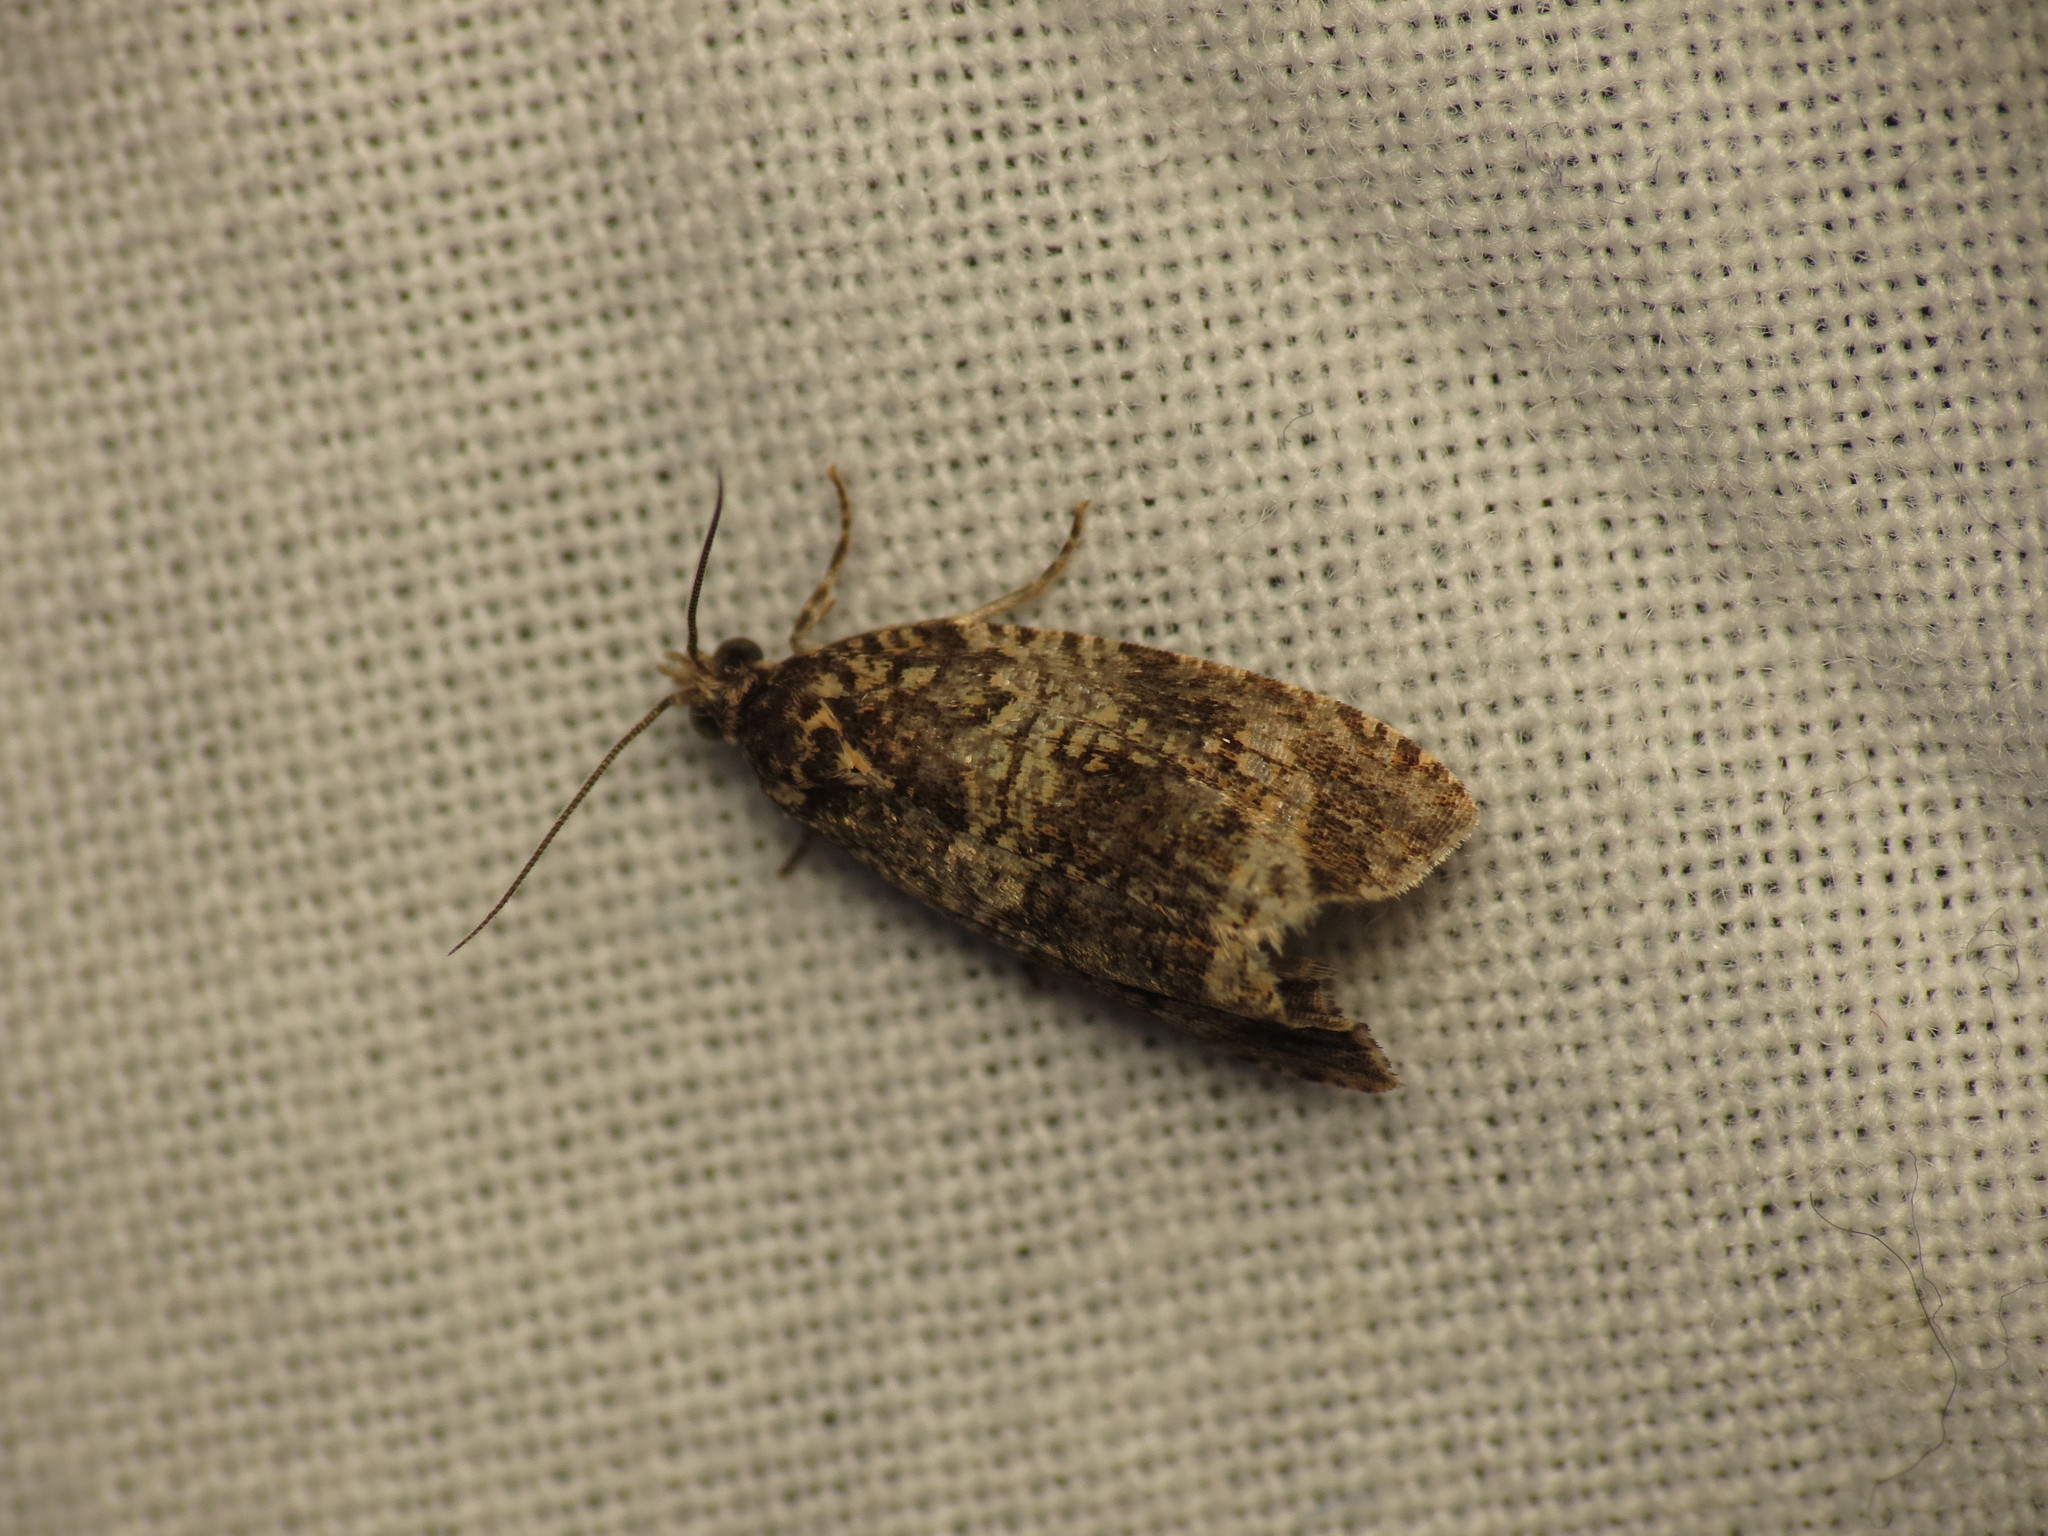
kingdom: Animalia
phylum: Arthropoda
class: Insecta
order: Lepidoptera
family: Tortricidae
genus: Syricoris
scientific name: Syricoris lacunana
